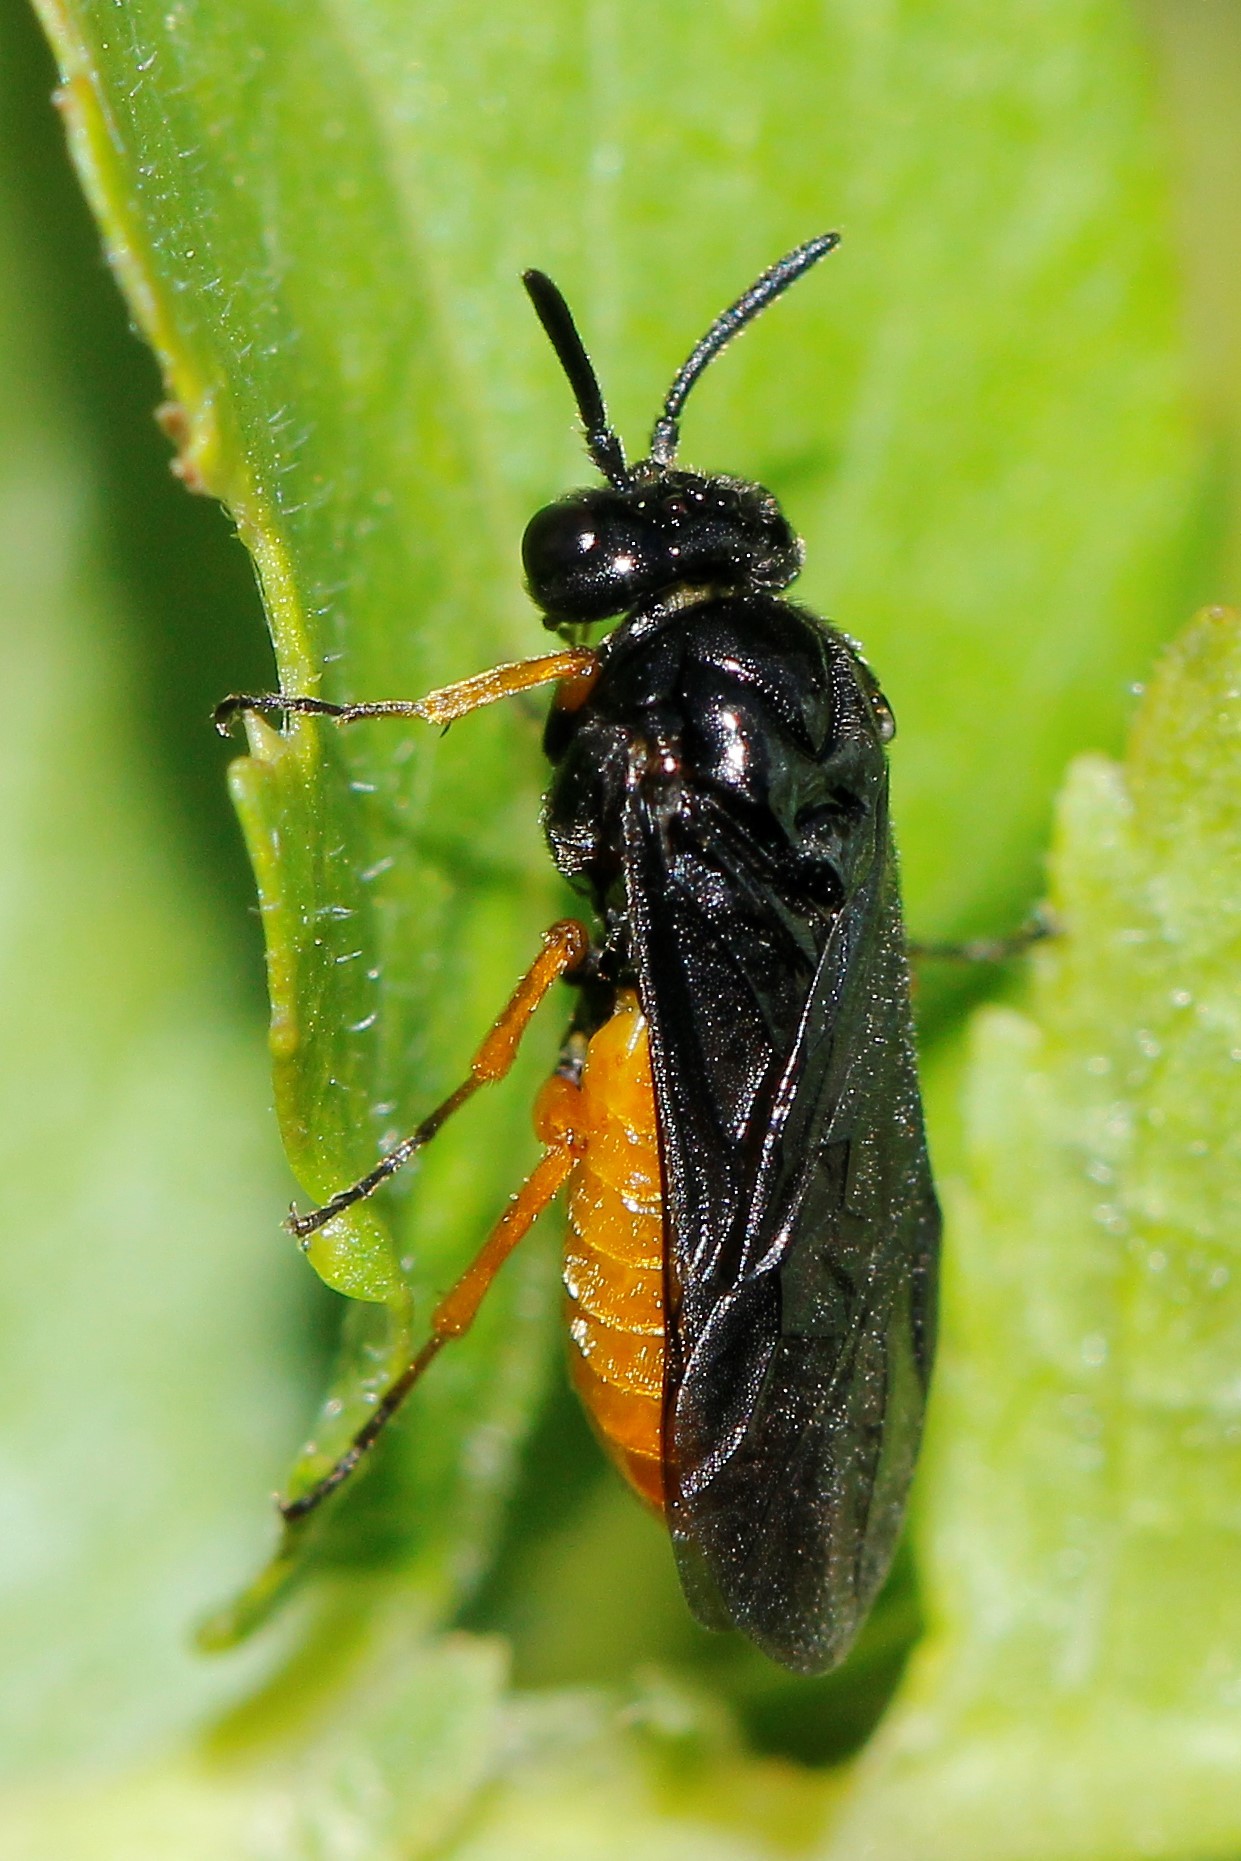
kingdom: Animalia
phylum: Arthropoda
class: Insecta
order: Hymenoptera
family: Argidae
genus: Sterictiphora
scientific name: Sterictiphora furcata
